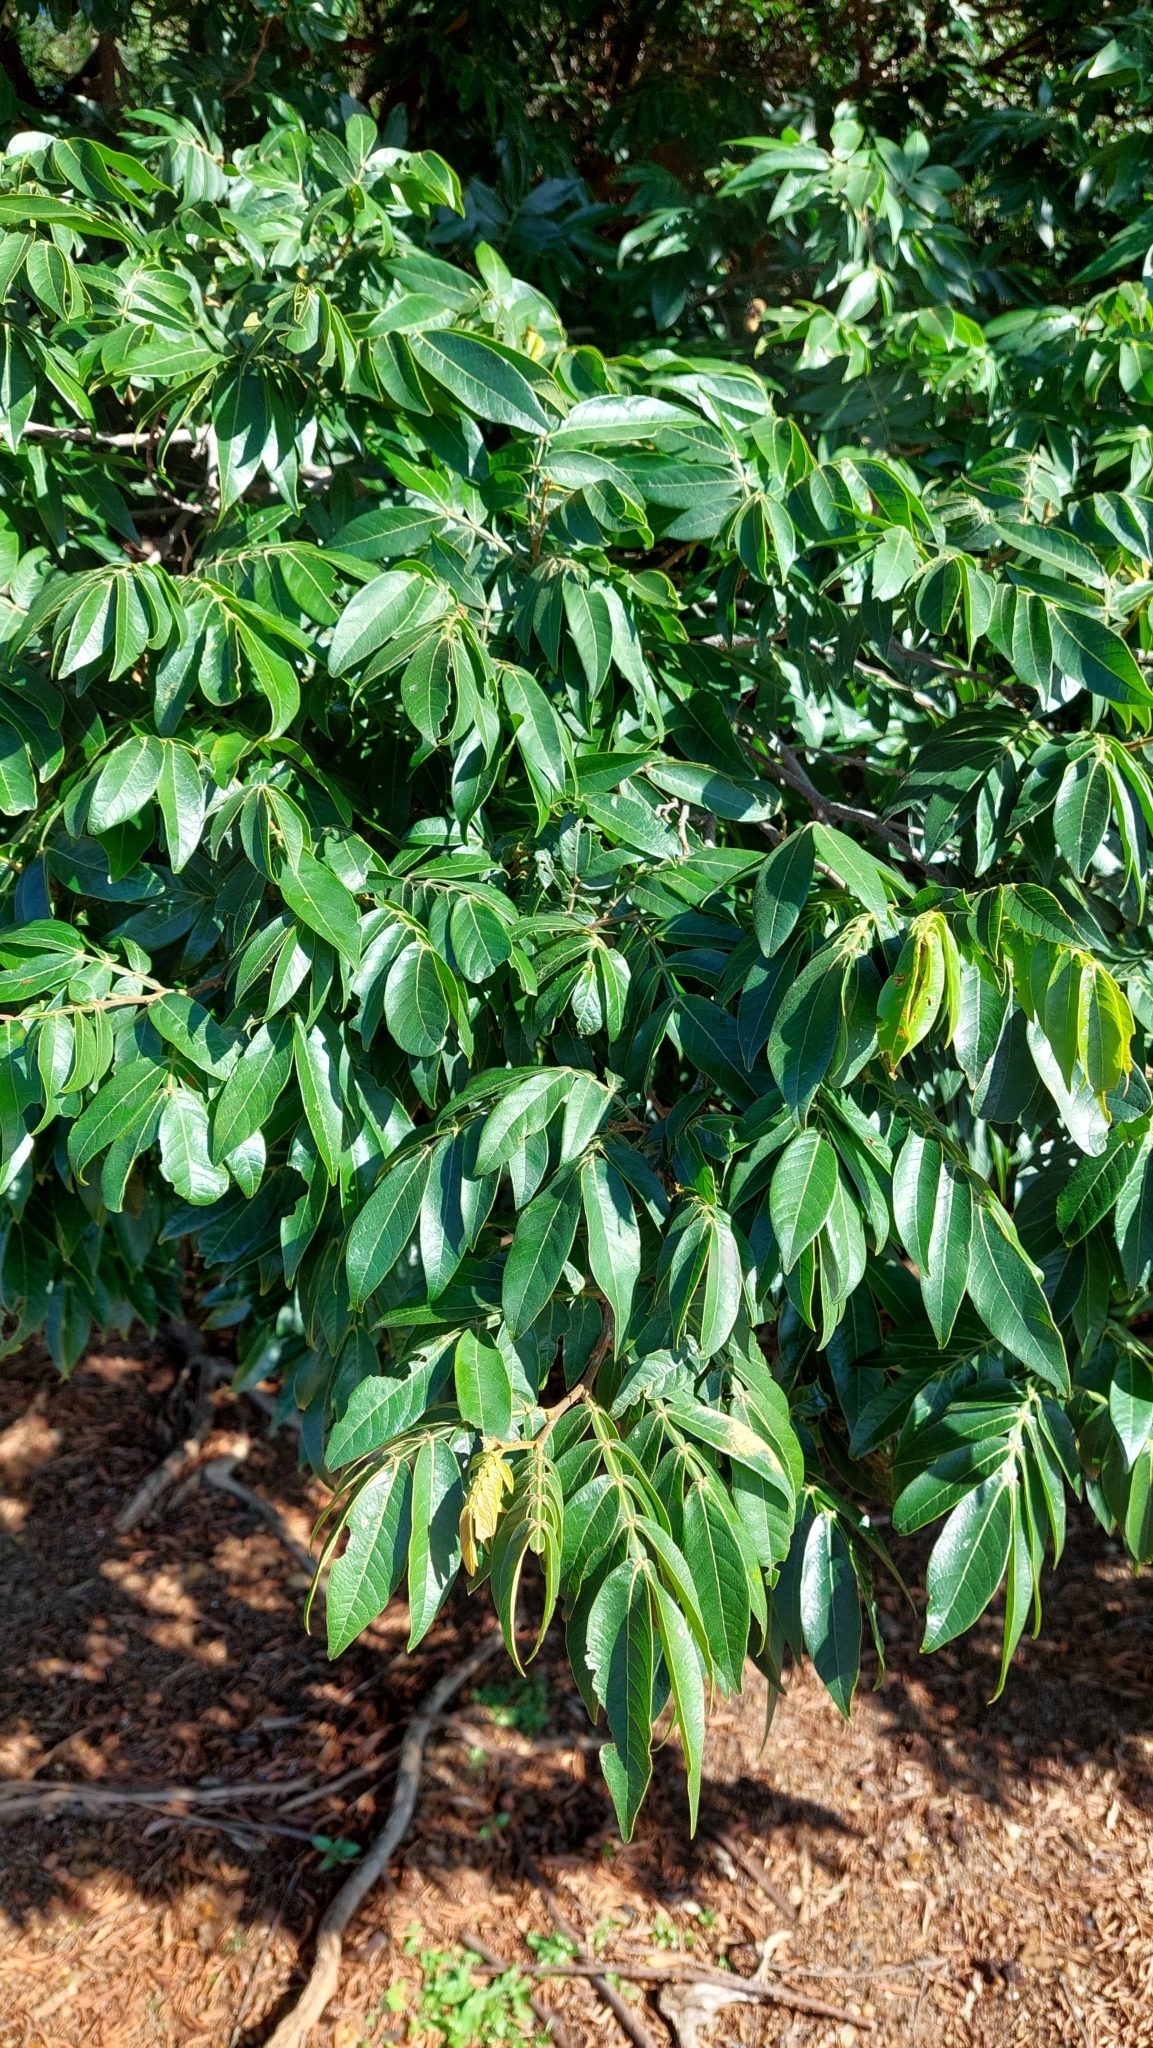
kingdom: Plantae
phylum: Tracheophyta
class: Magnoliopsida
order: Fabales
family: Fabaceae
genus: Inga
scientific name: Inga uraguensis
